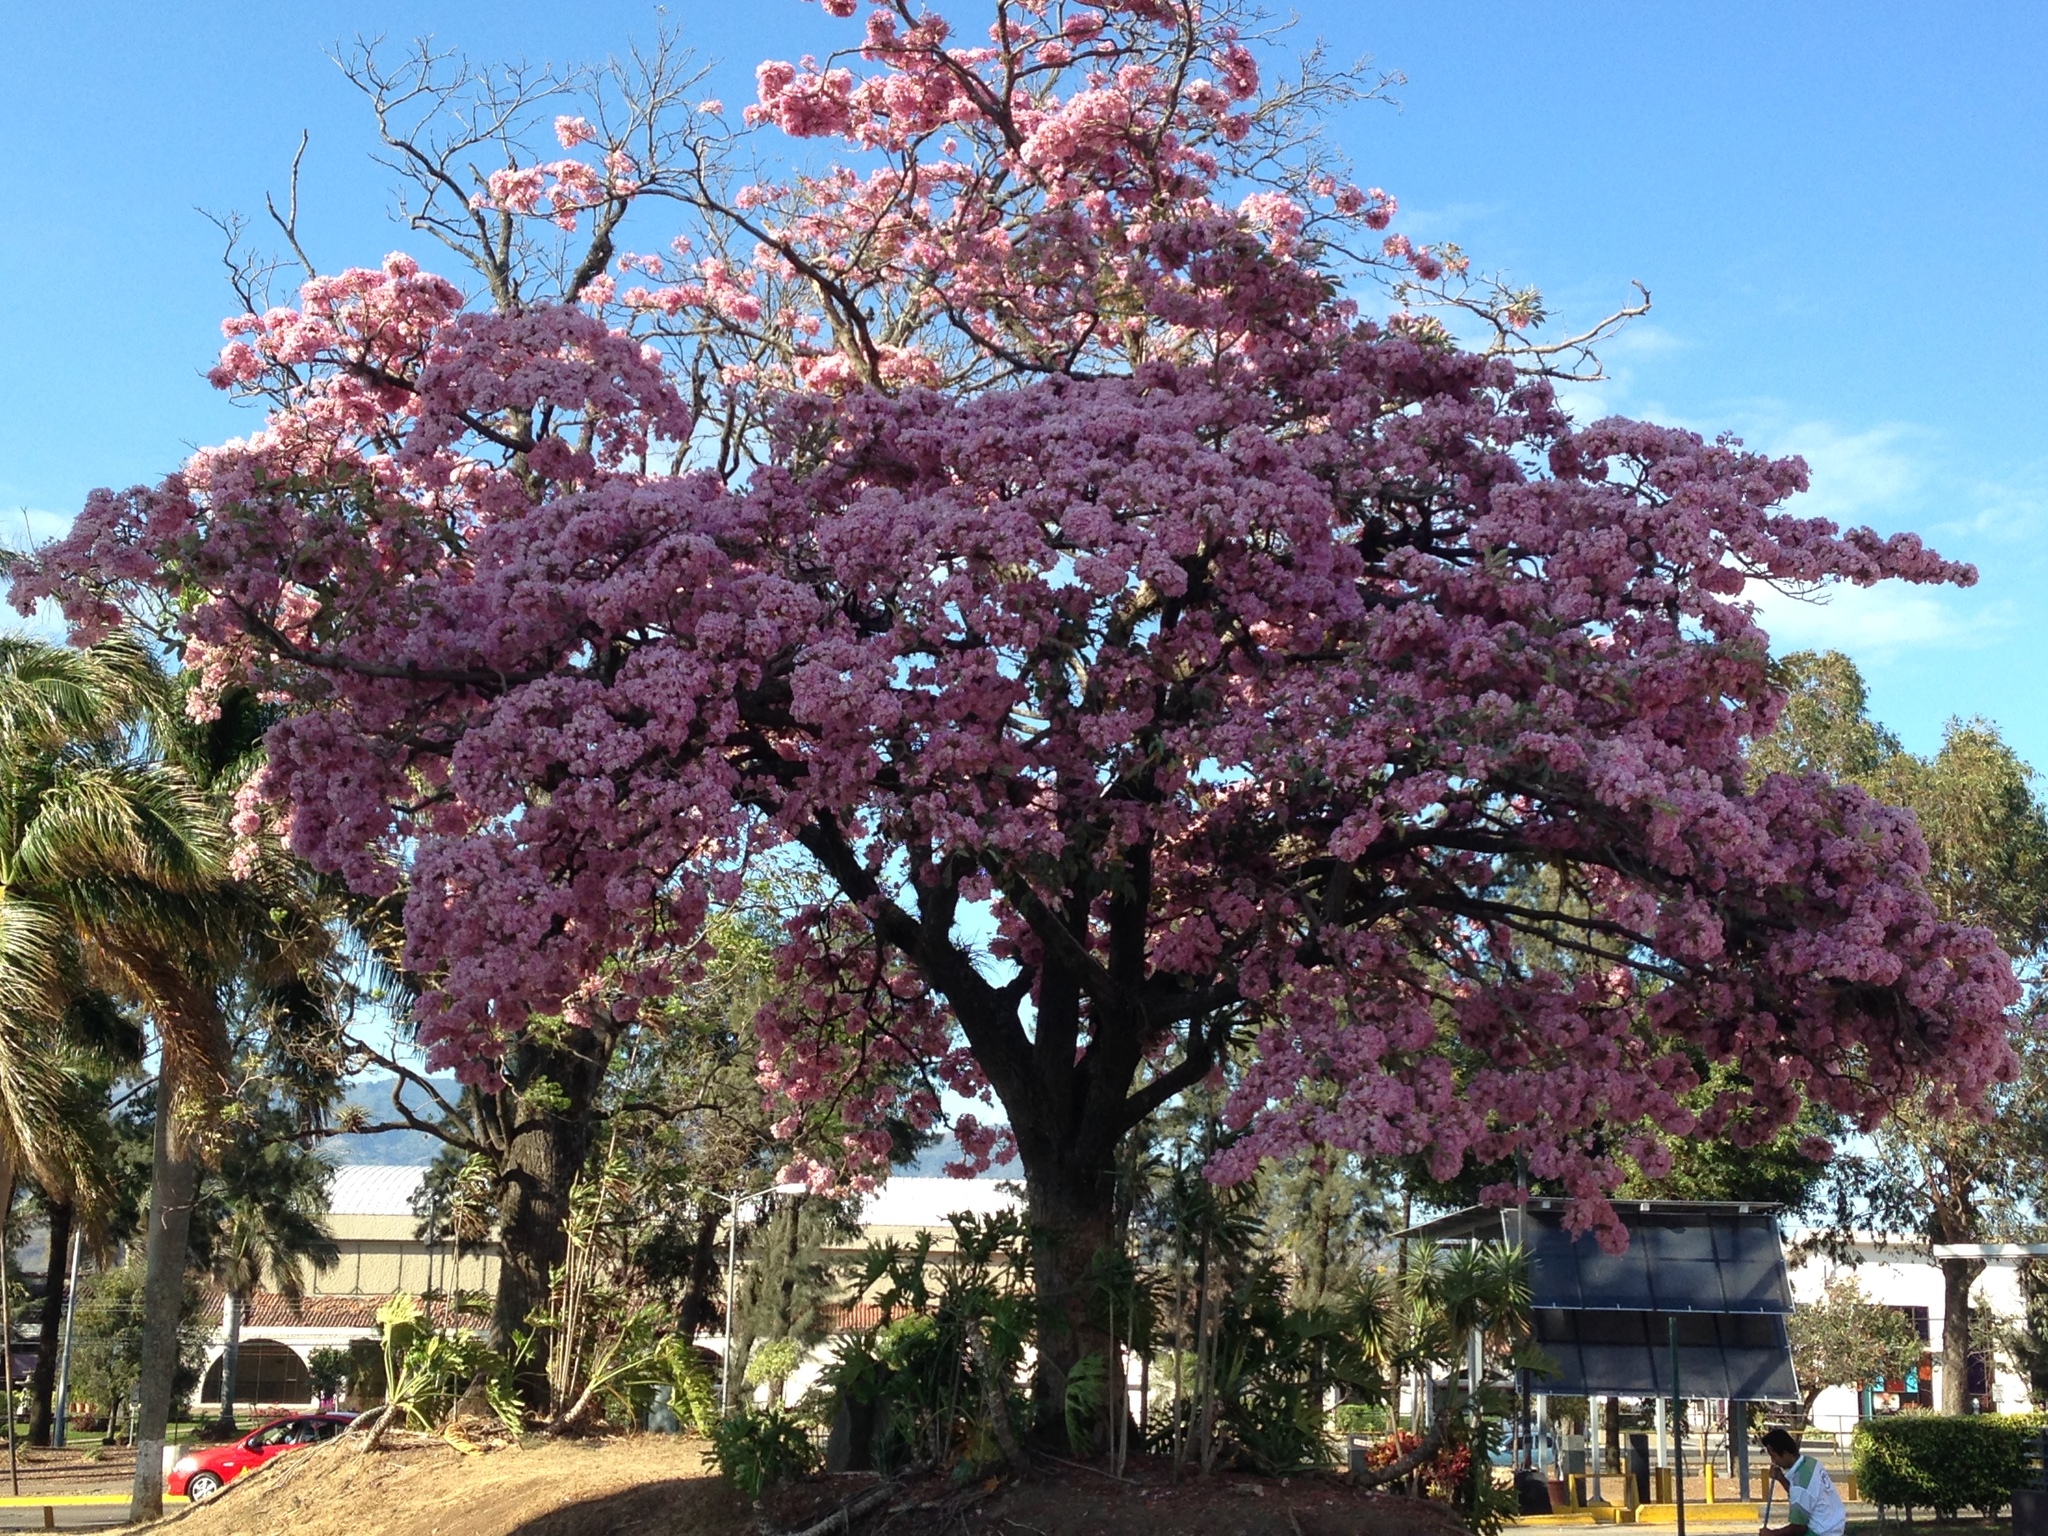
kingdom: Plantae
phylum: Tracheophyta
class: Magnoliopsida
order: Lamiales
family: Bignoniaceae
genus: Tabebuia
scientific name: Tabebuia rosea
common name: Pink poui
